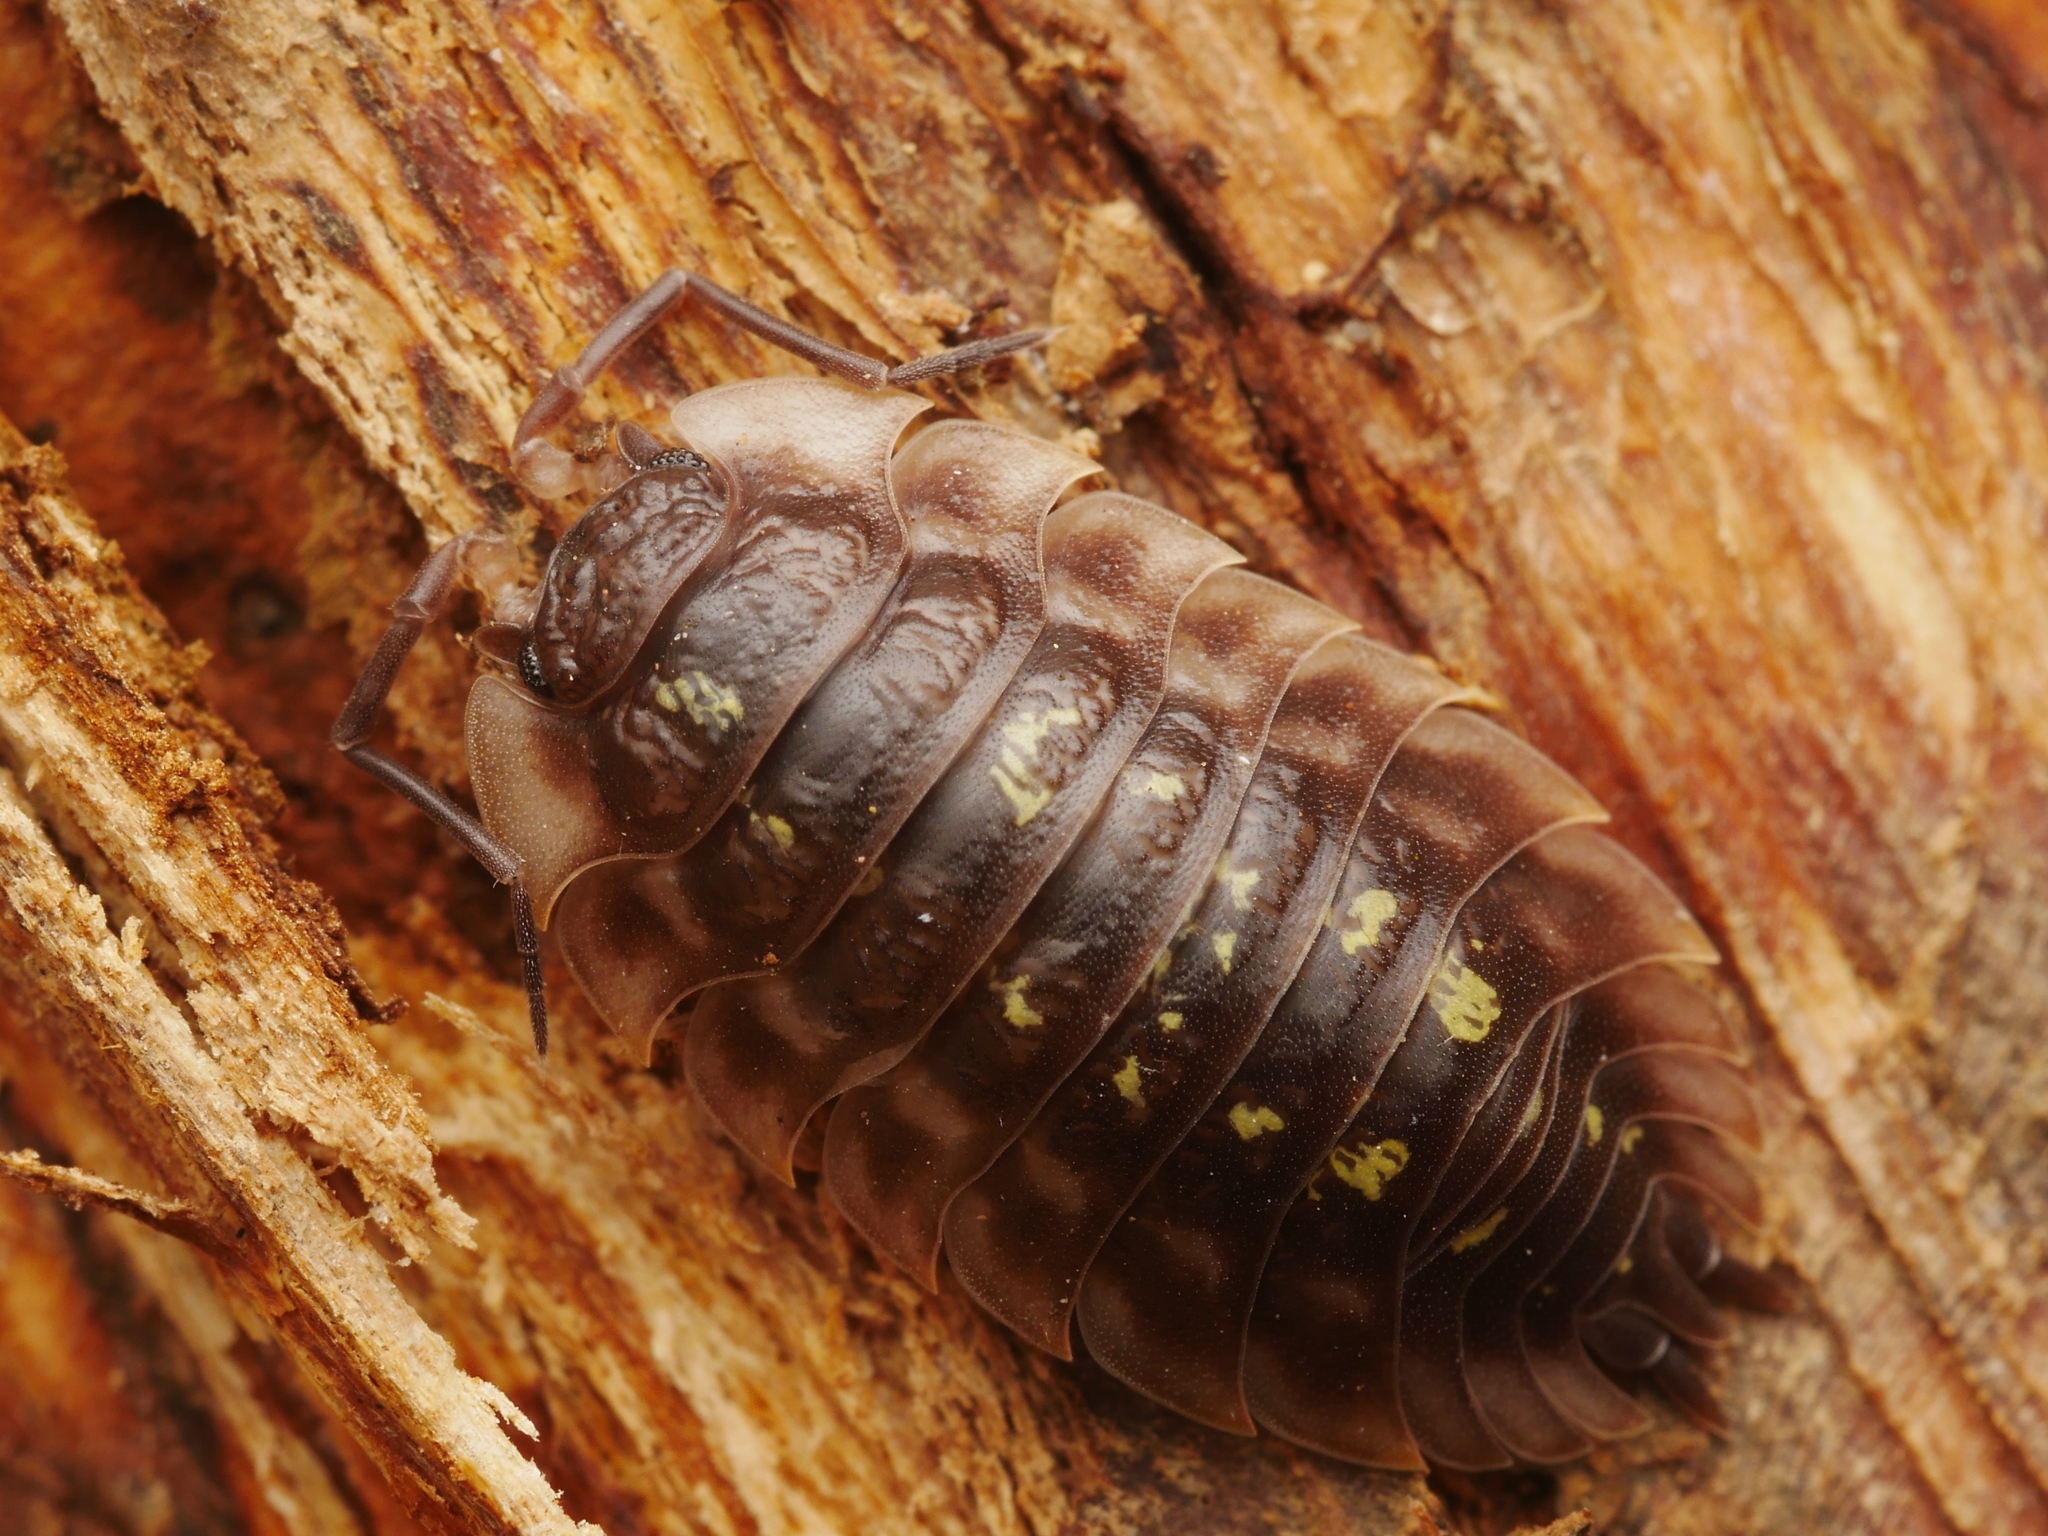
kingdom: Animalia
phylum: Arthropoda
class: Malacostraca
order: Isopoda
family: Oniscidae
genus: Oniscus
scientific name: Oniscus asellus
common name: Common shiny woodlouse
